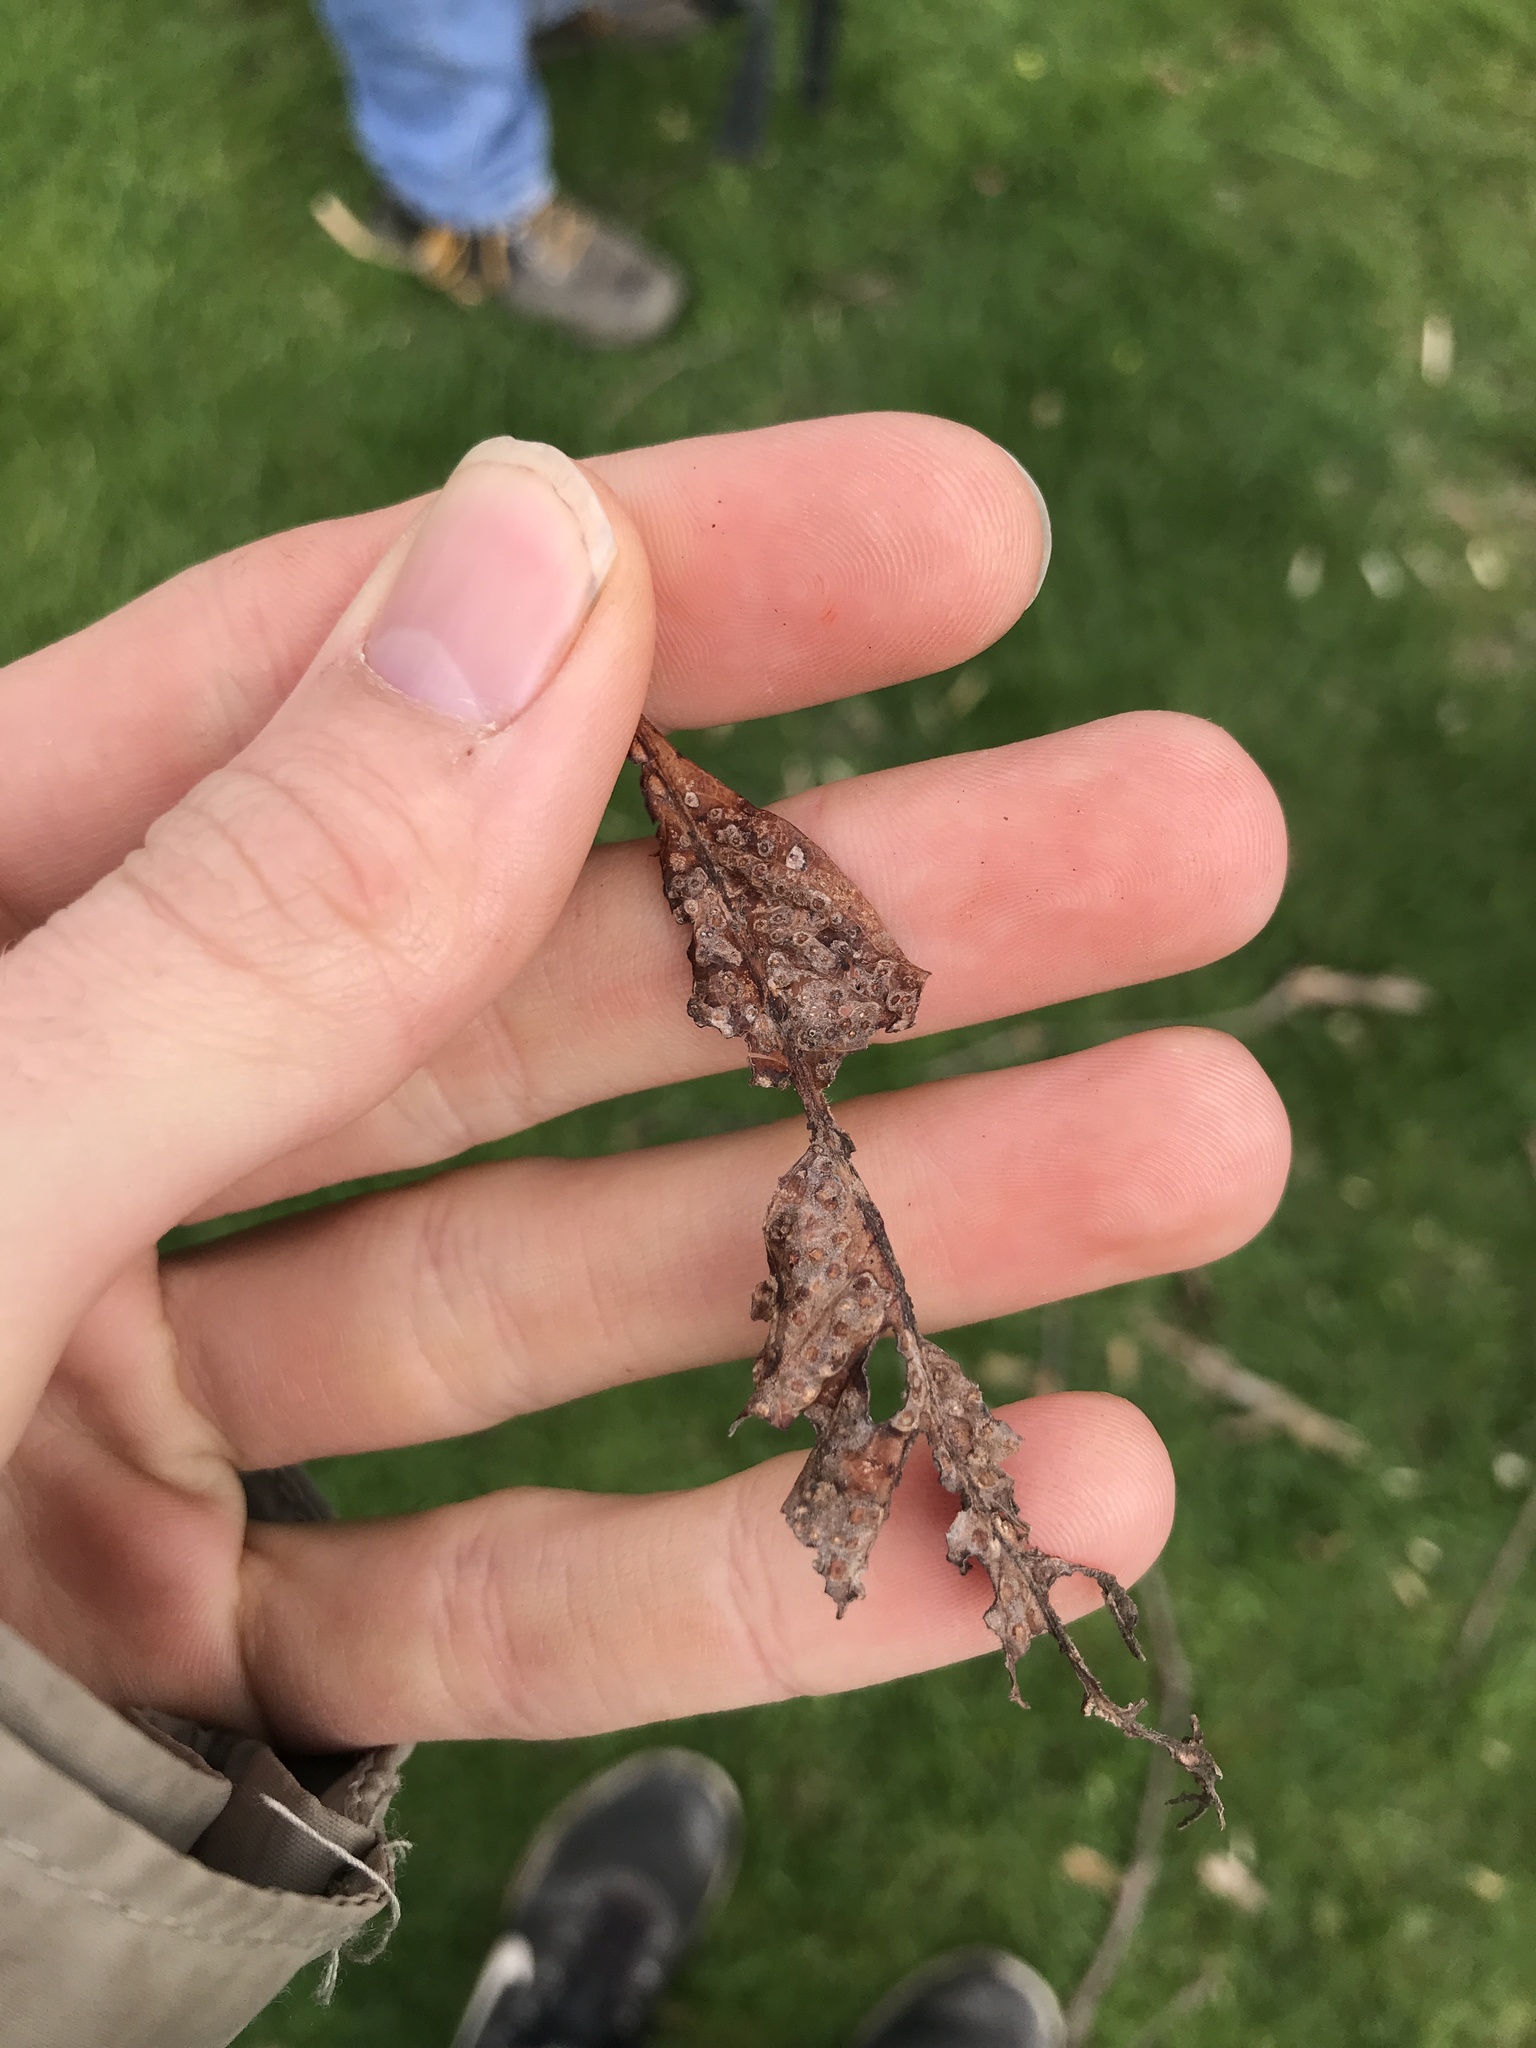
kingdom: Animalia
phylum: Arthropoda
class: Insecta
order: Hymenoptera
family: Cynipidae
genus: Neuroterus
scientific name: Neuroterus saltarius
